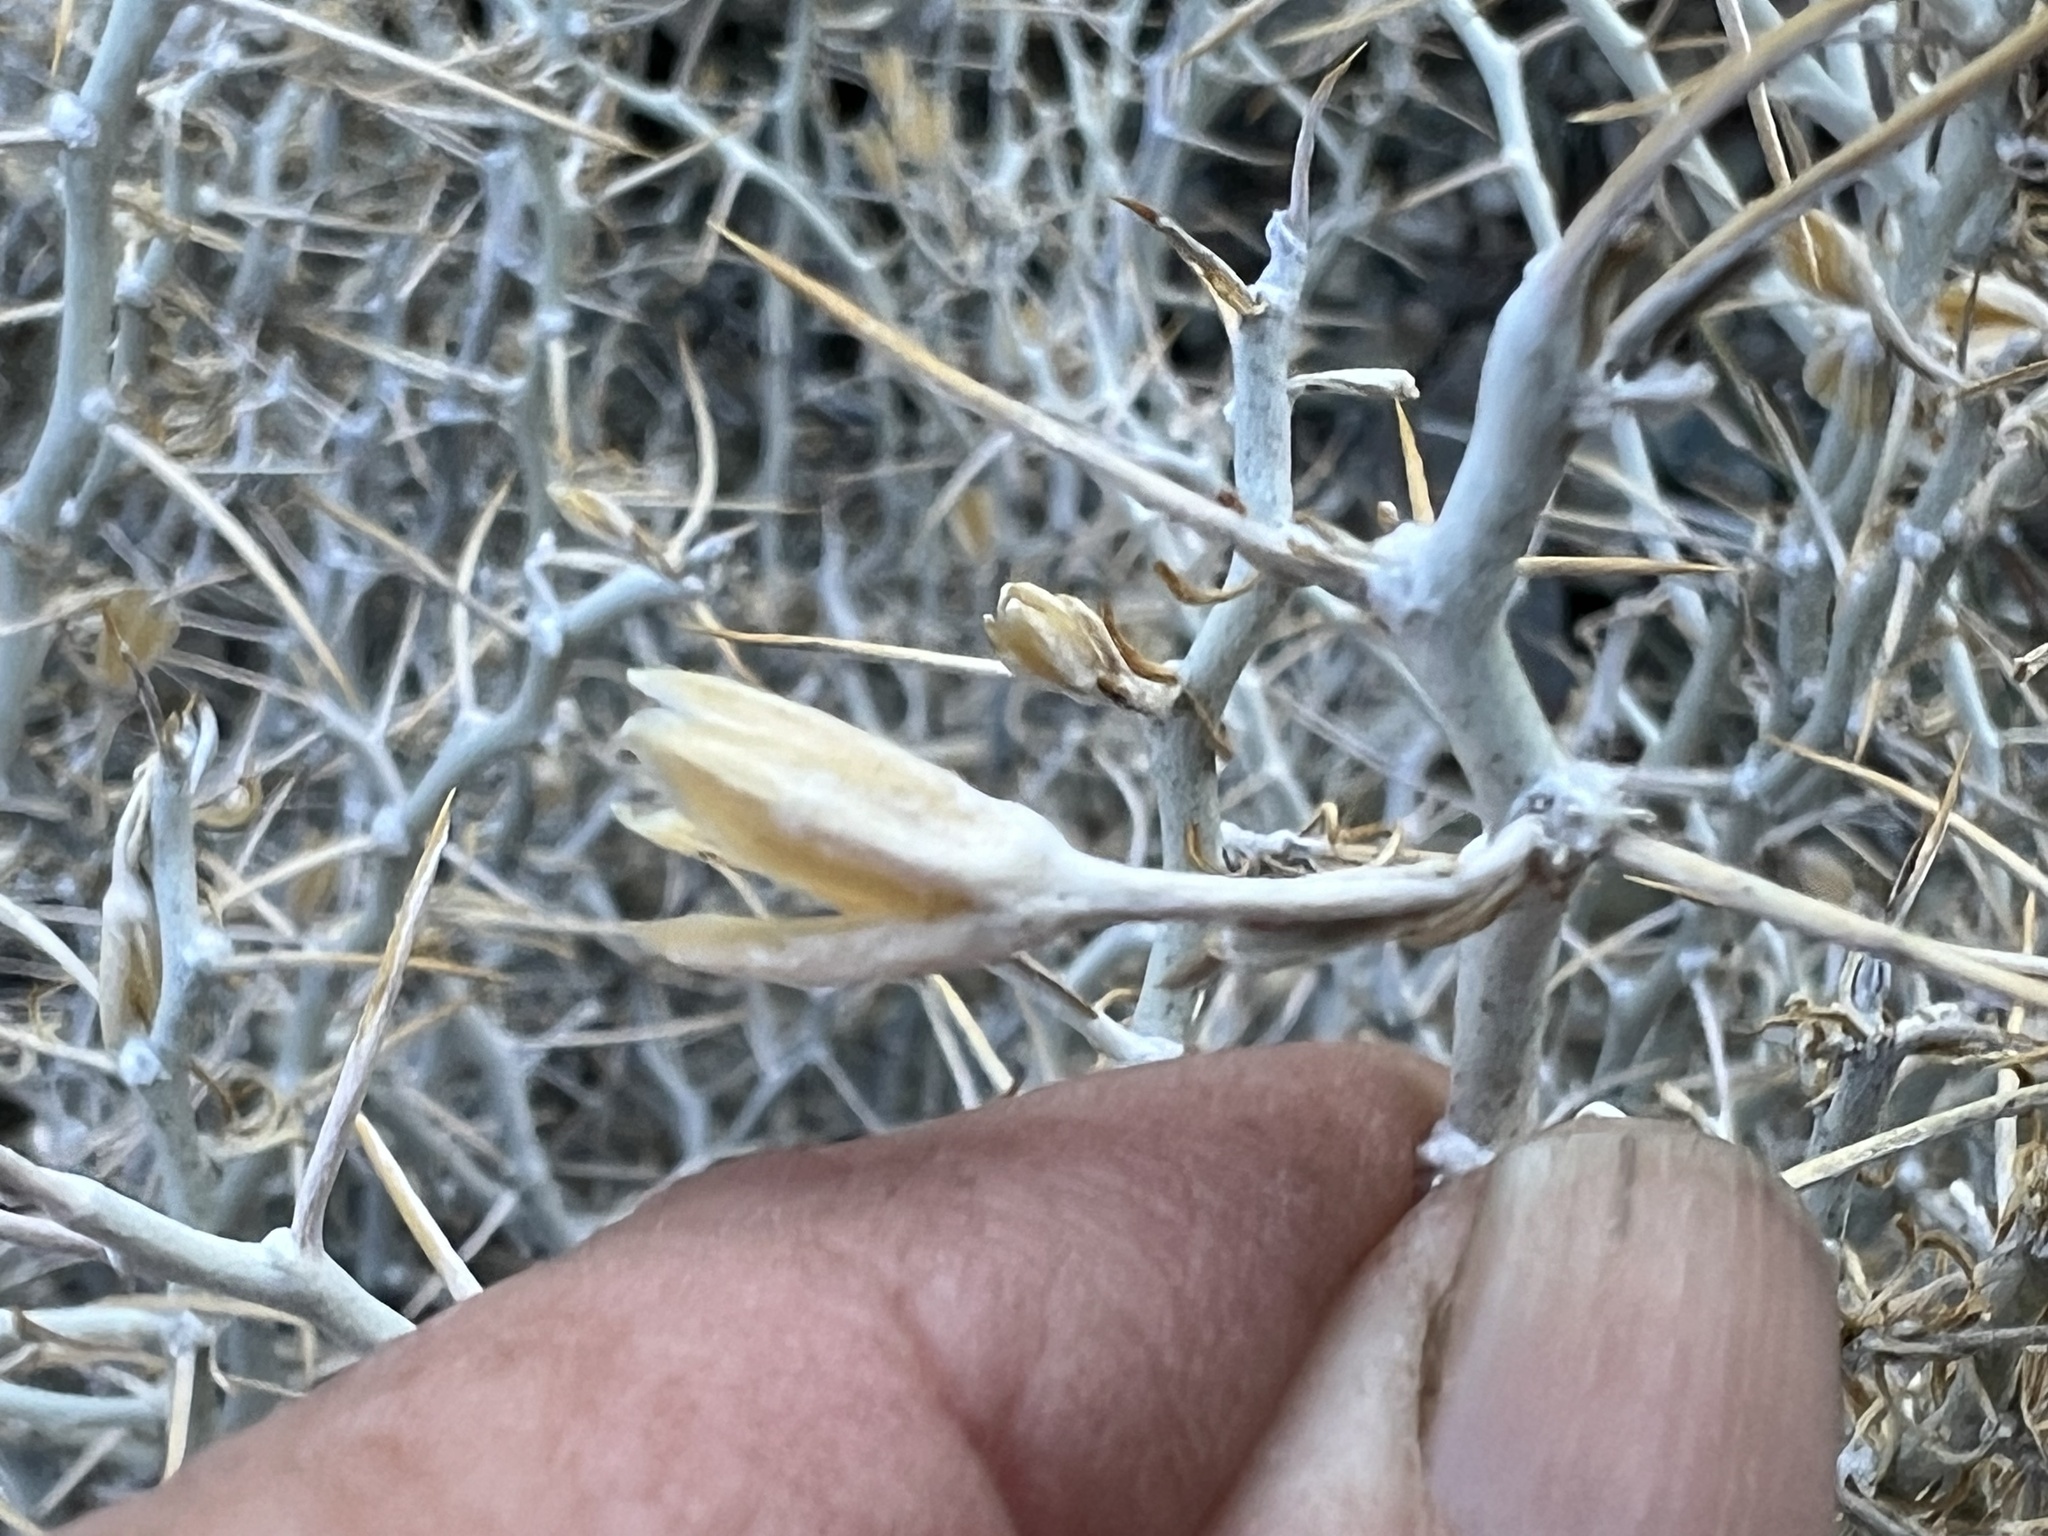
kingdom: Plantae
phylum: Tracheophyta
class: Magnoliopsida
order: Asterales
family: Asteraceae
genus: Tetradymia
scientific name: Tetradymia axillaris
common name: Long-spine horsebrush
